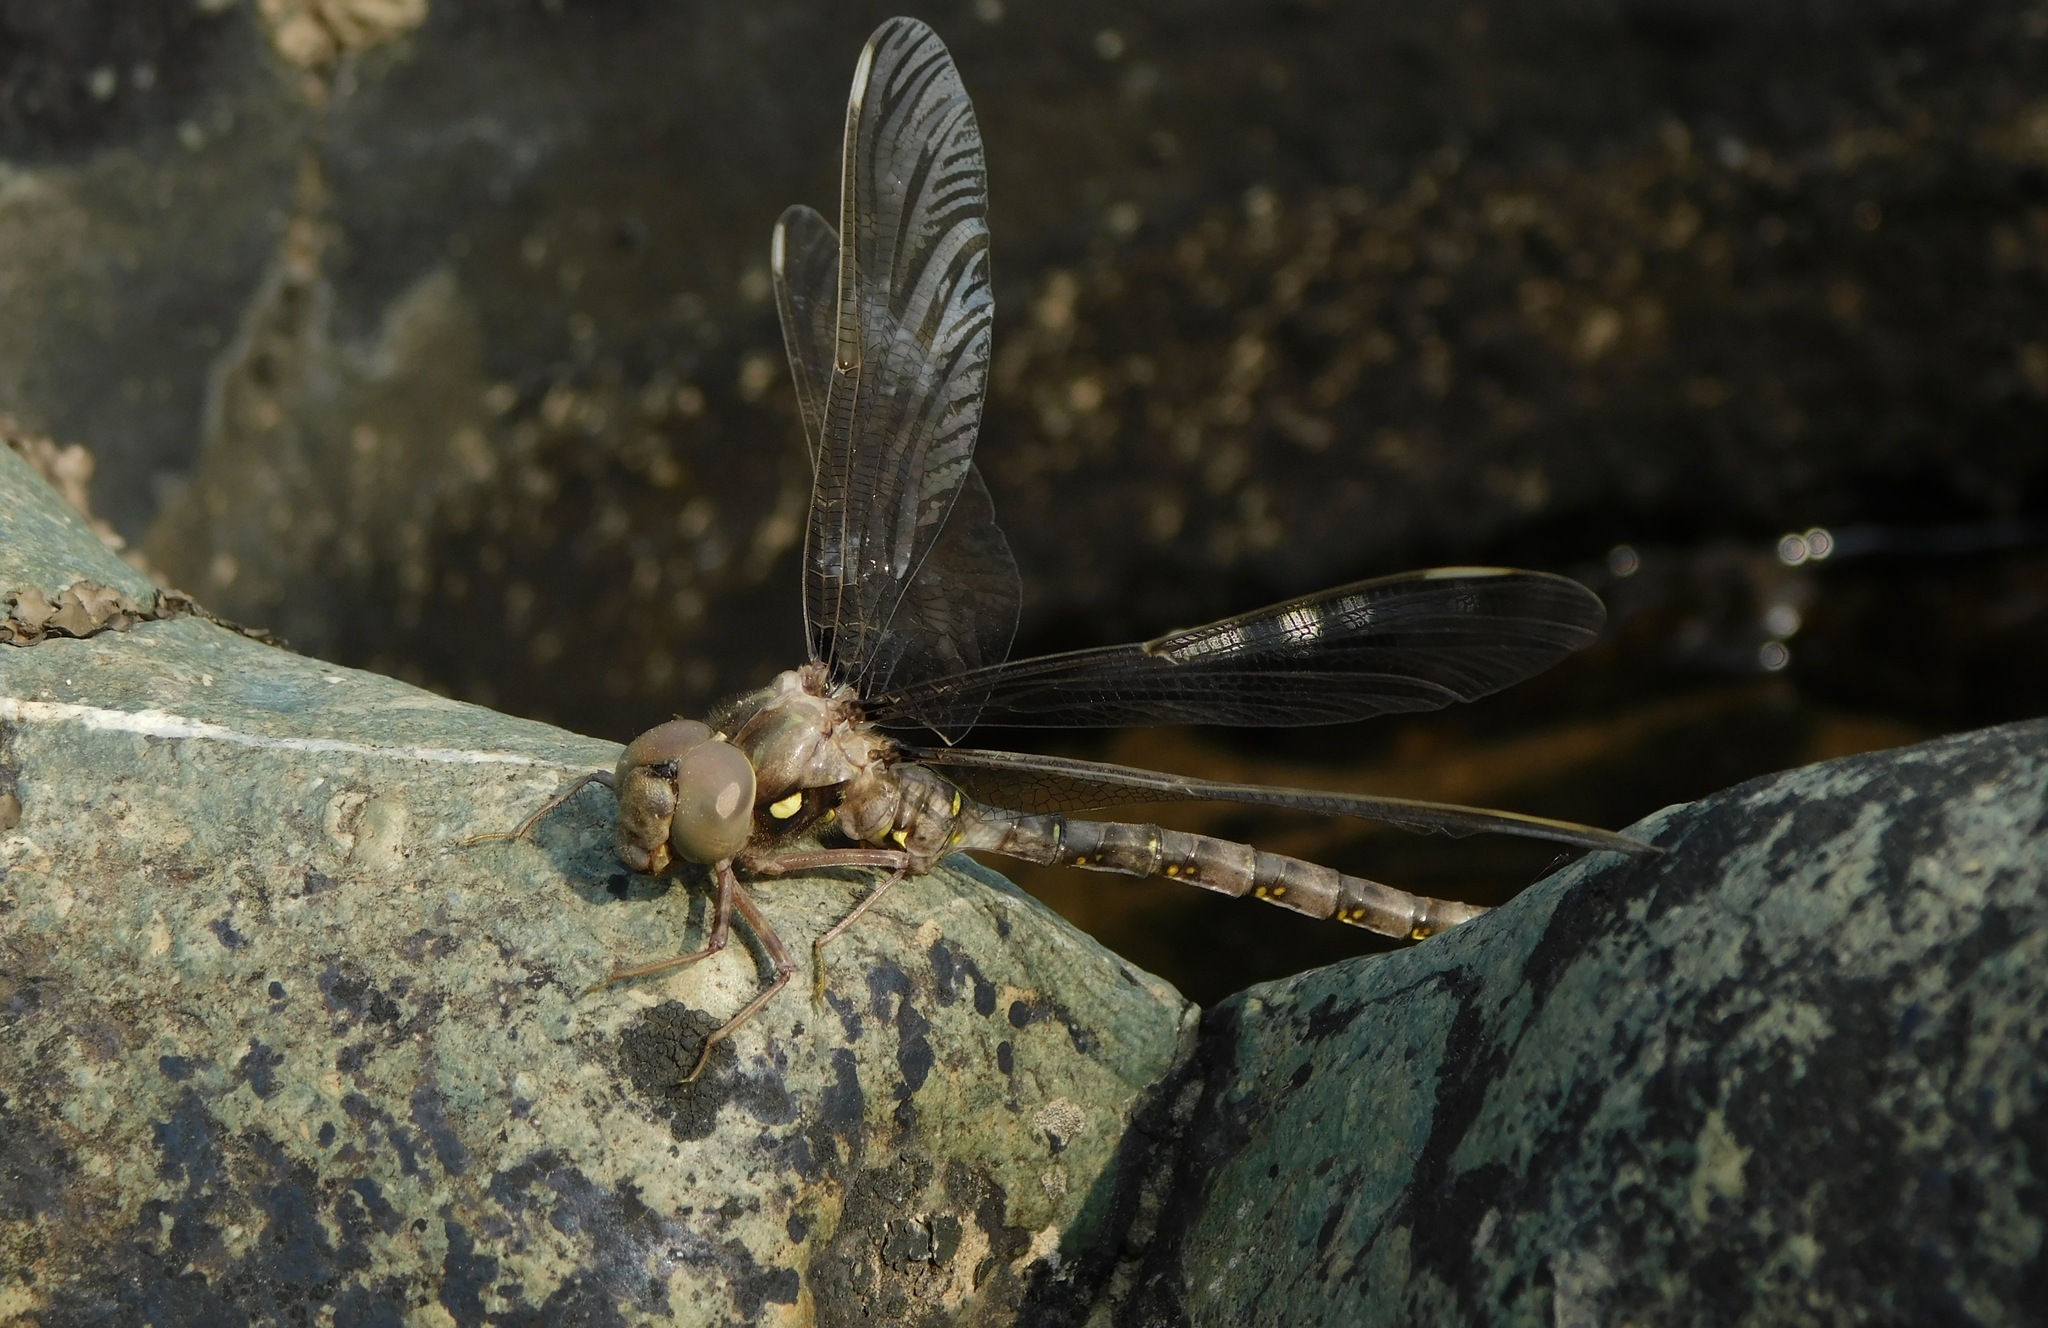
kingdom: Animalia
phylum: Arthropoda
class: Insecta
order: Odonata
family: Aeshnidae
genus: Boyeria
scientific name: Boyeria vinosa
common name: Fawn darner
